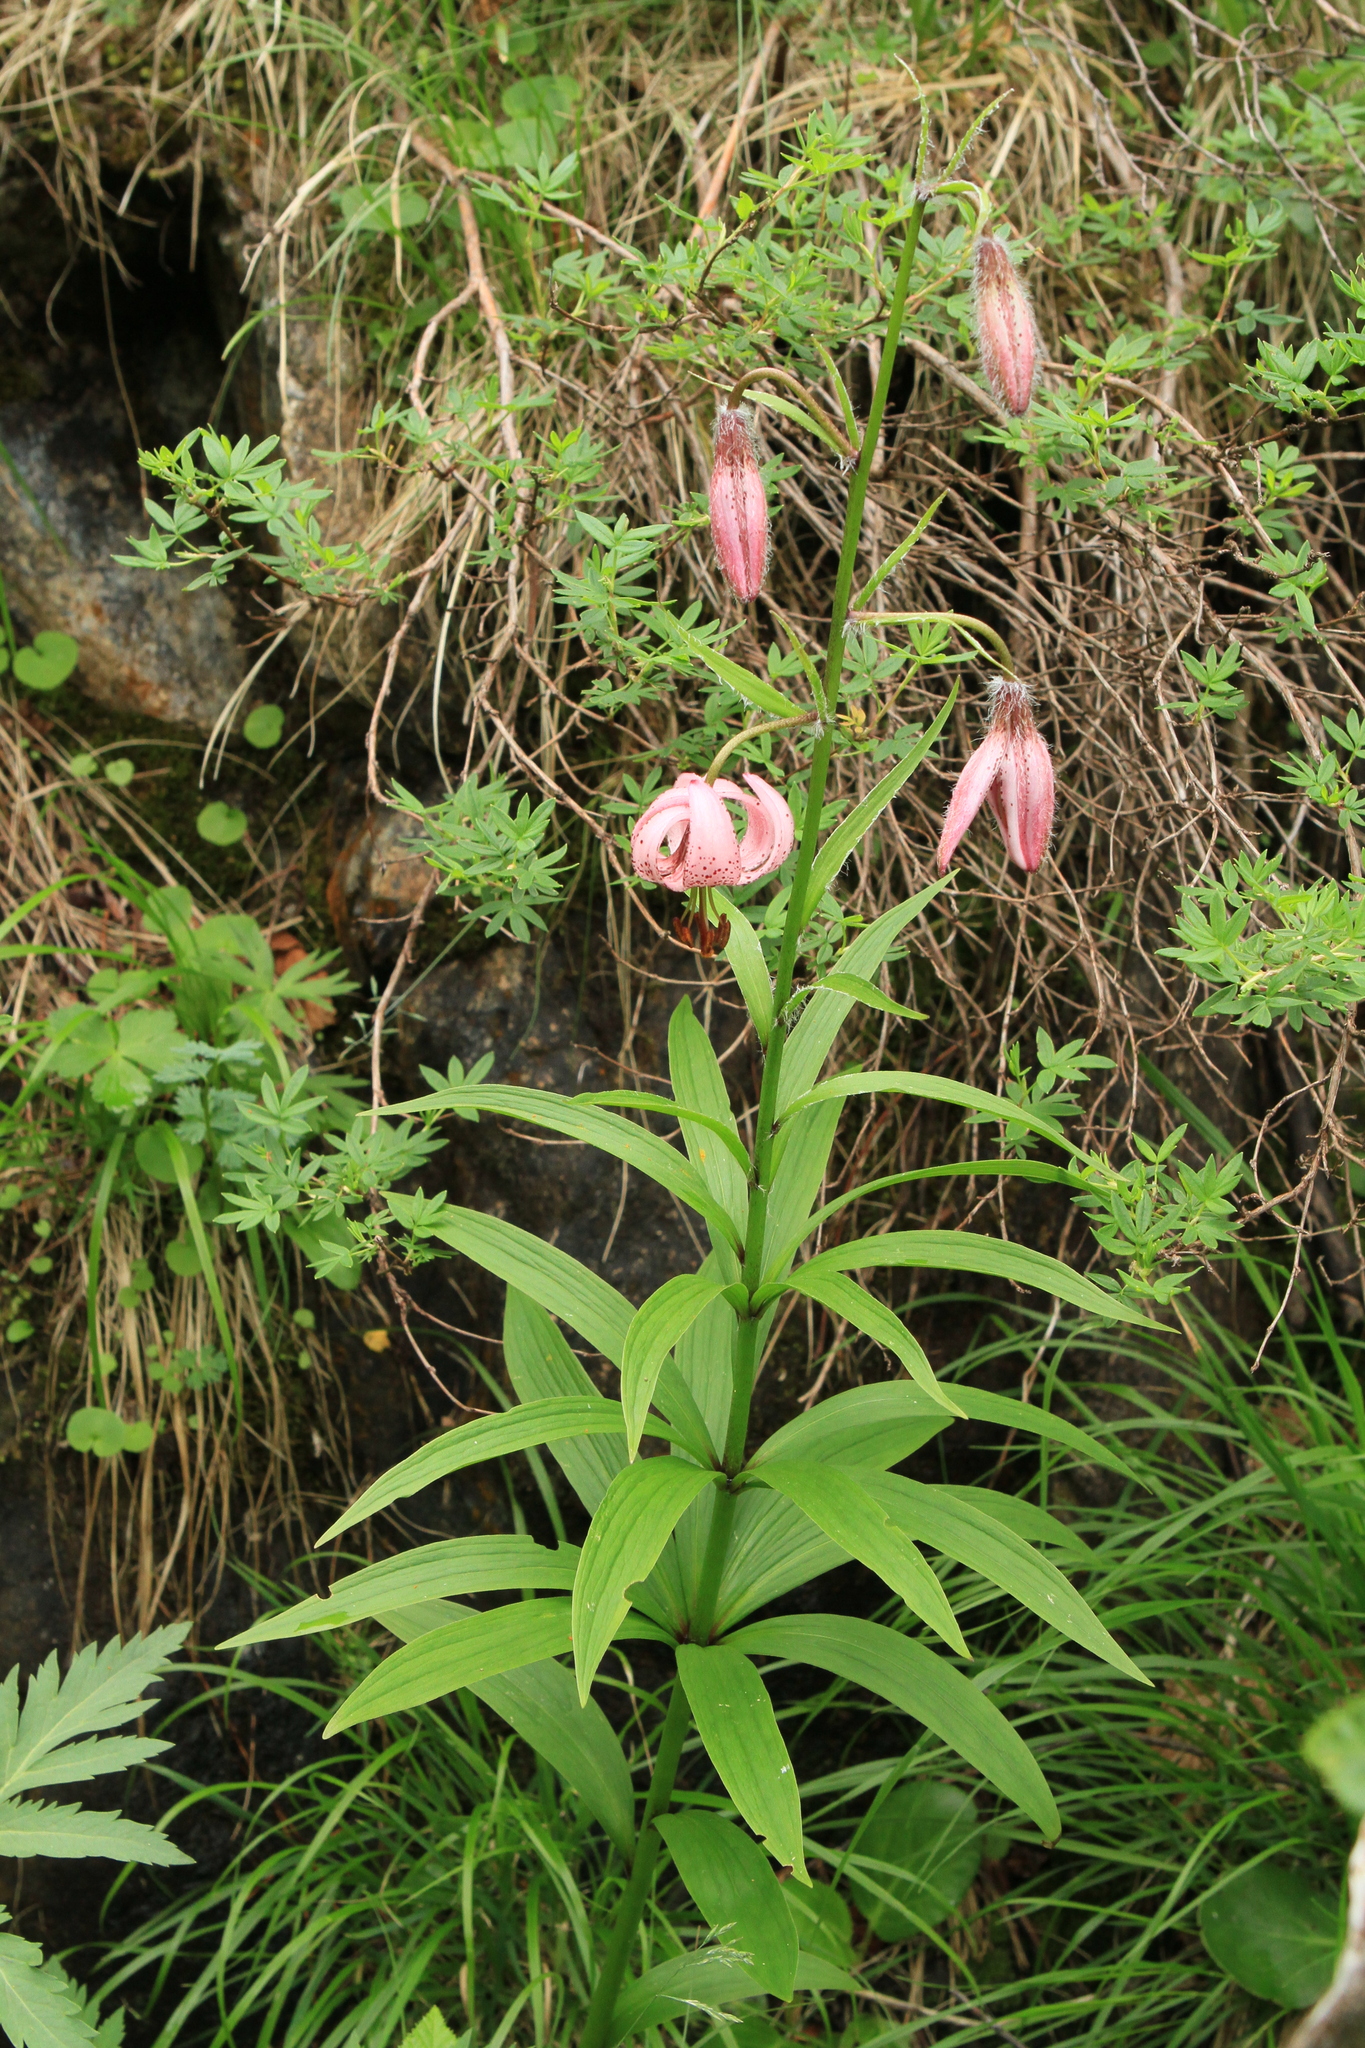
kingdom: Plantae
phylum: Tracheophyta
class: Liliopsida
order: Liliales
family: Liliaceae
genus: Lilium
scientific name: Lilium martagon
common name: Martagon lily
